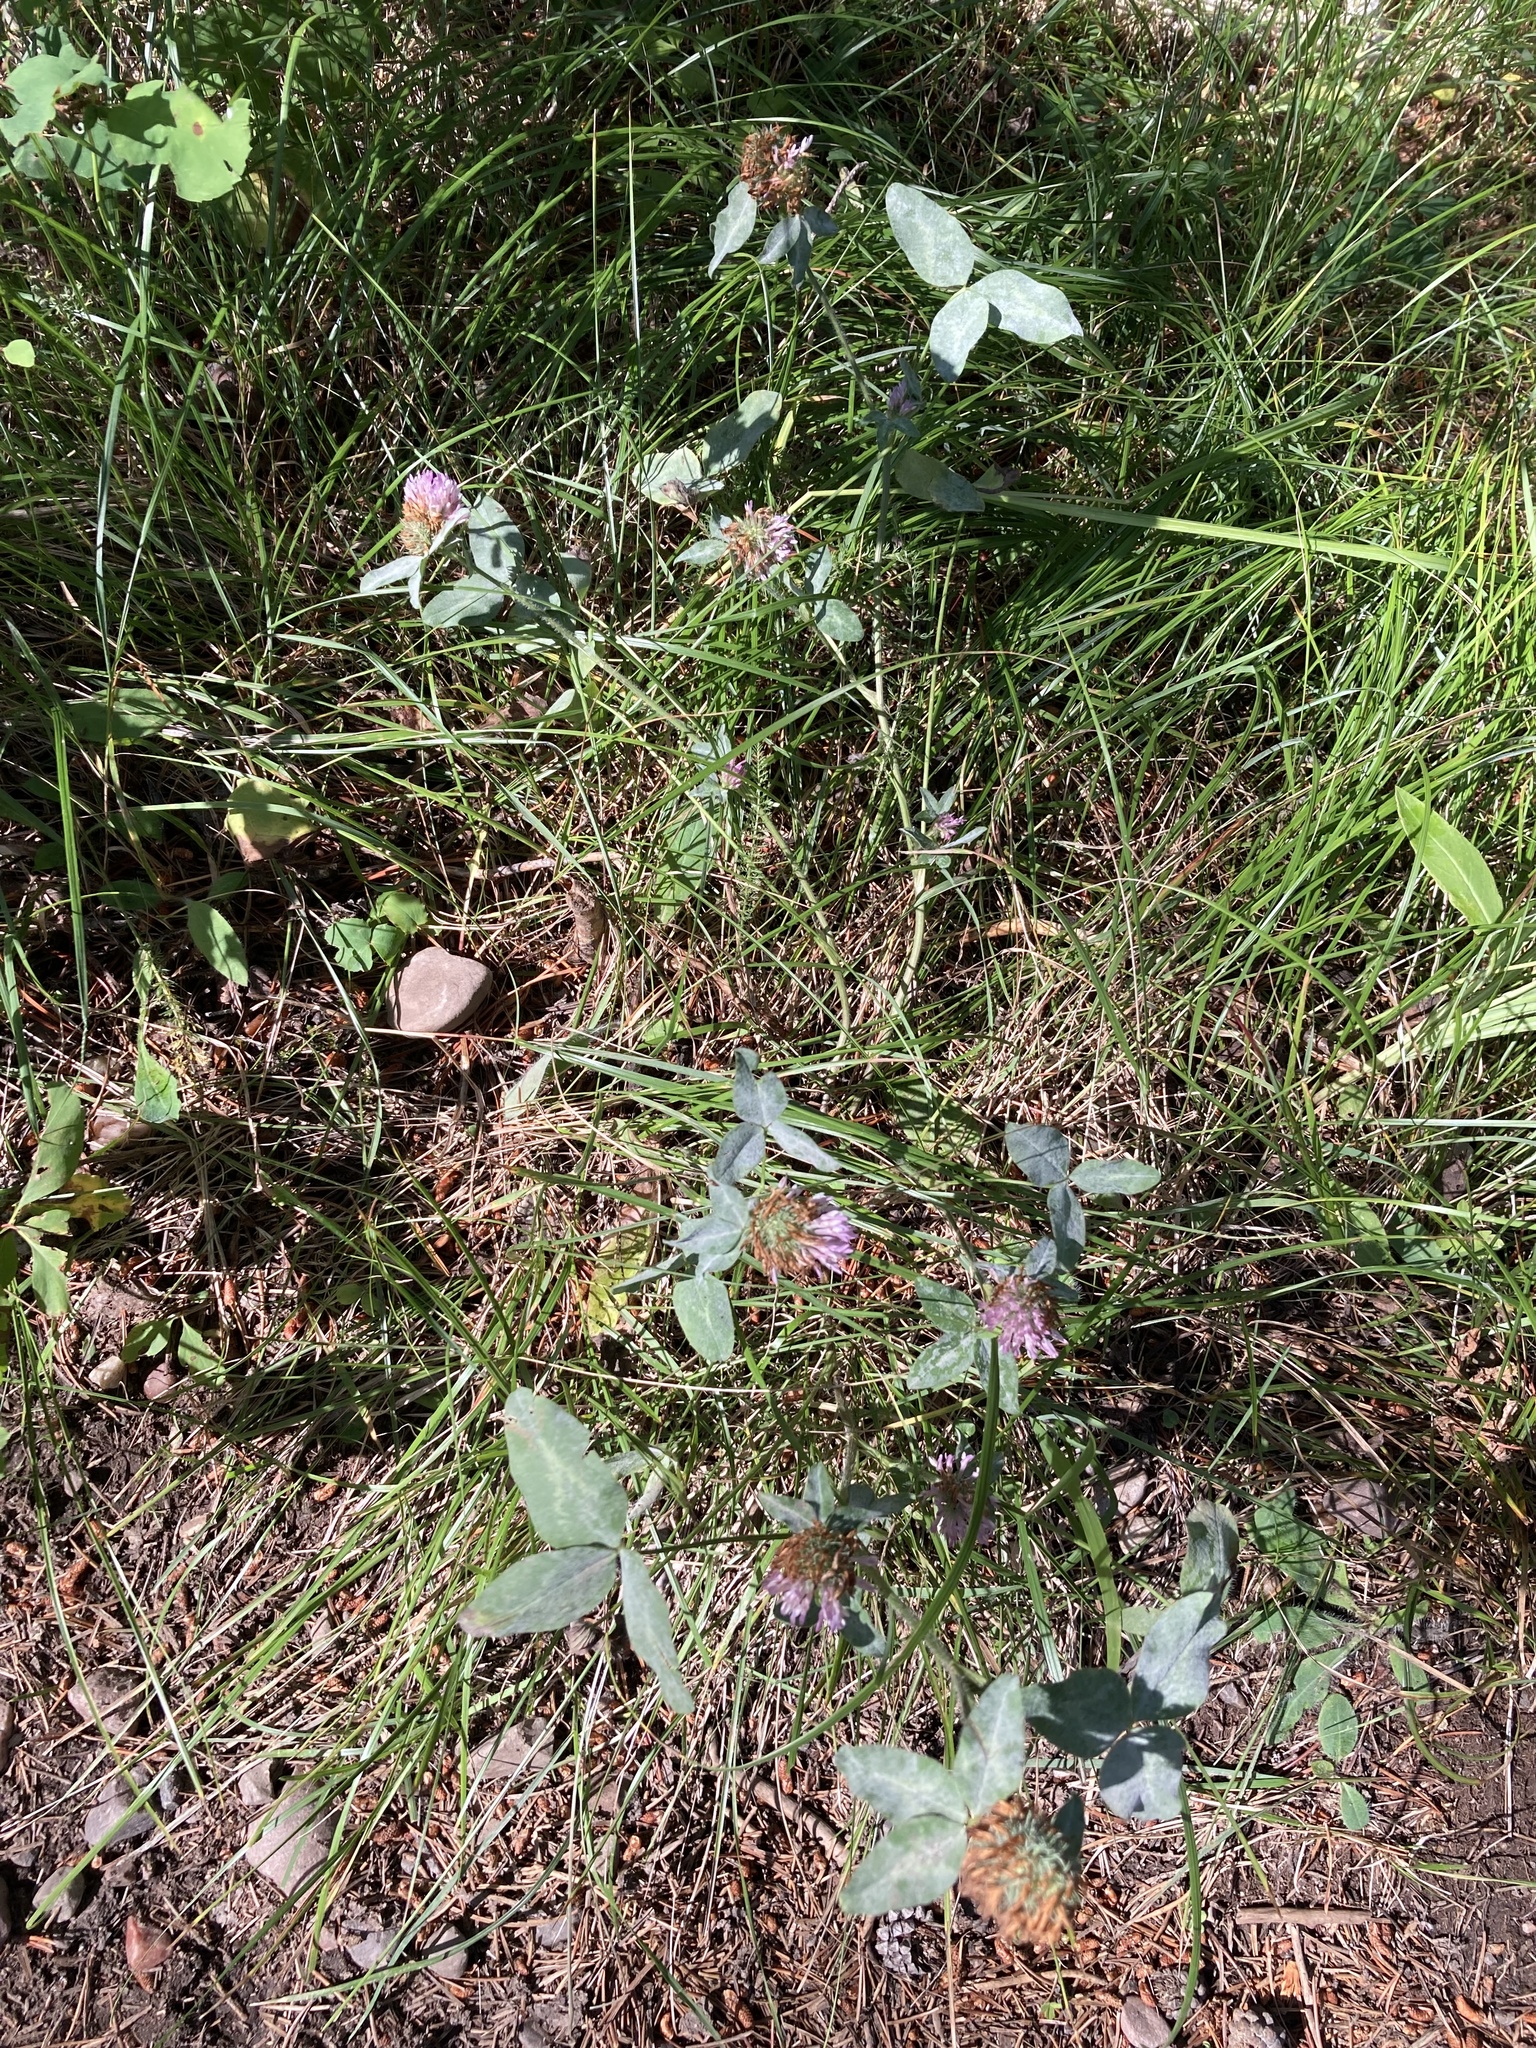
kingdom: Plantae
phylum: Tracheophyta
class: Magnoliopsida
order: Fabales
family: Fabaceae
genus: Trifolium
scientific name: Trifolium pratense
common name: Red clover
